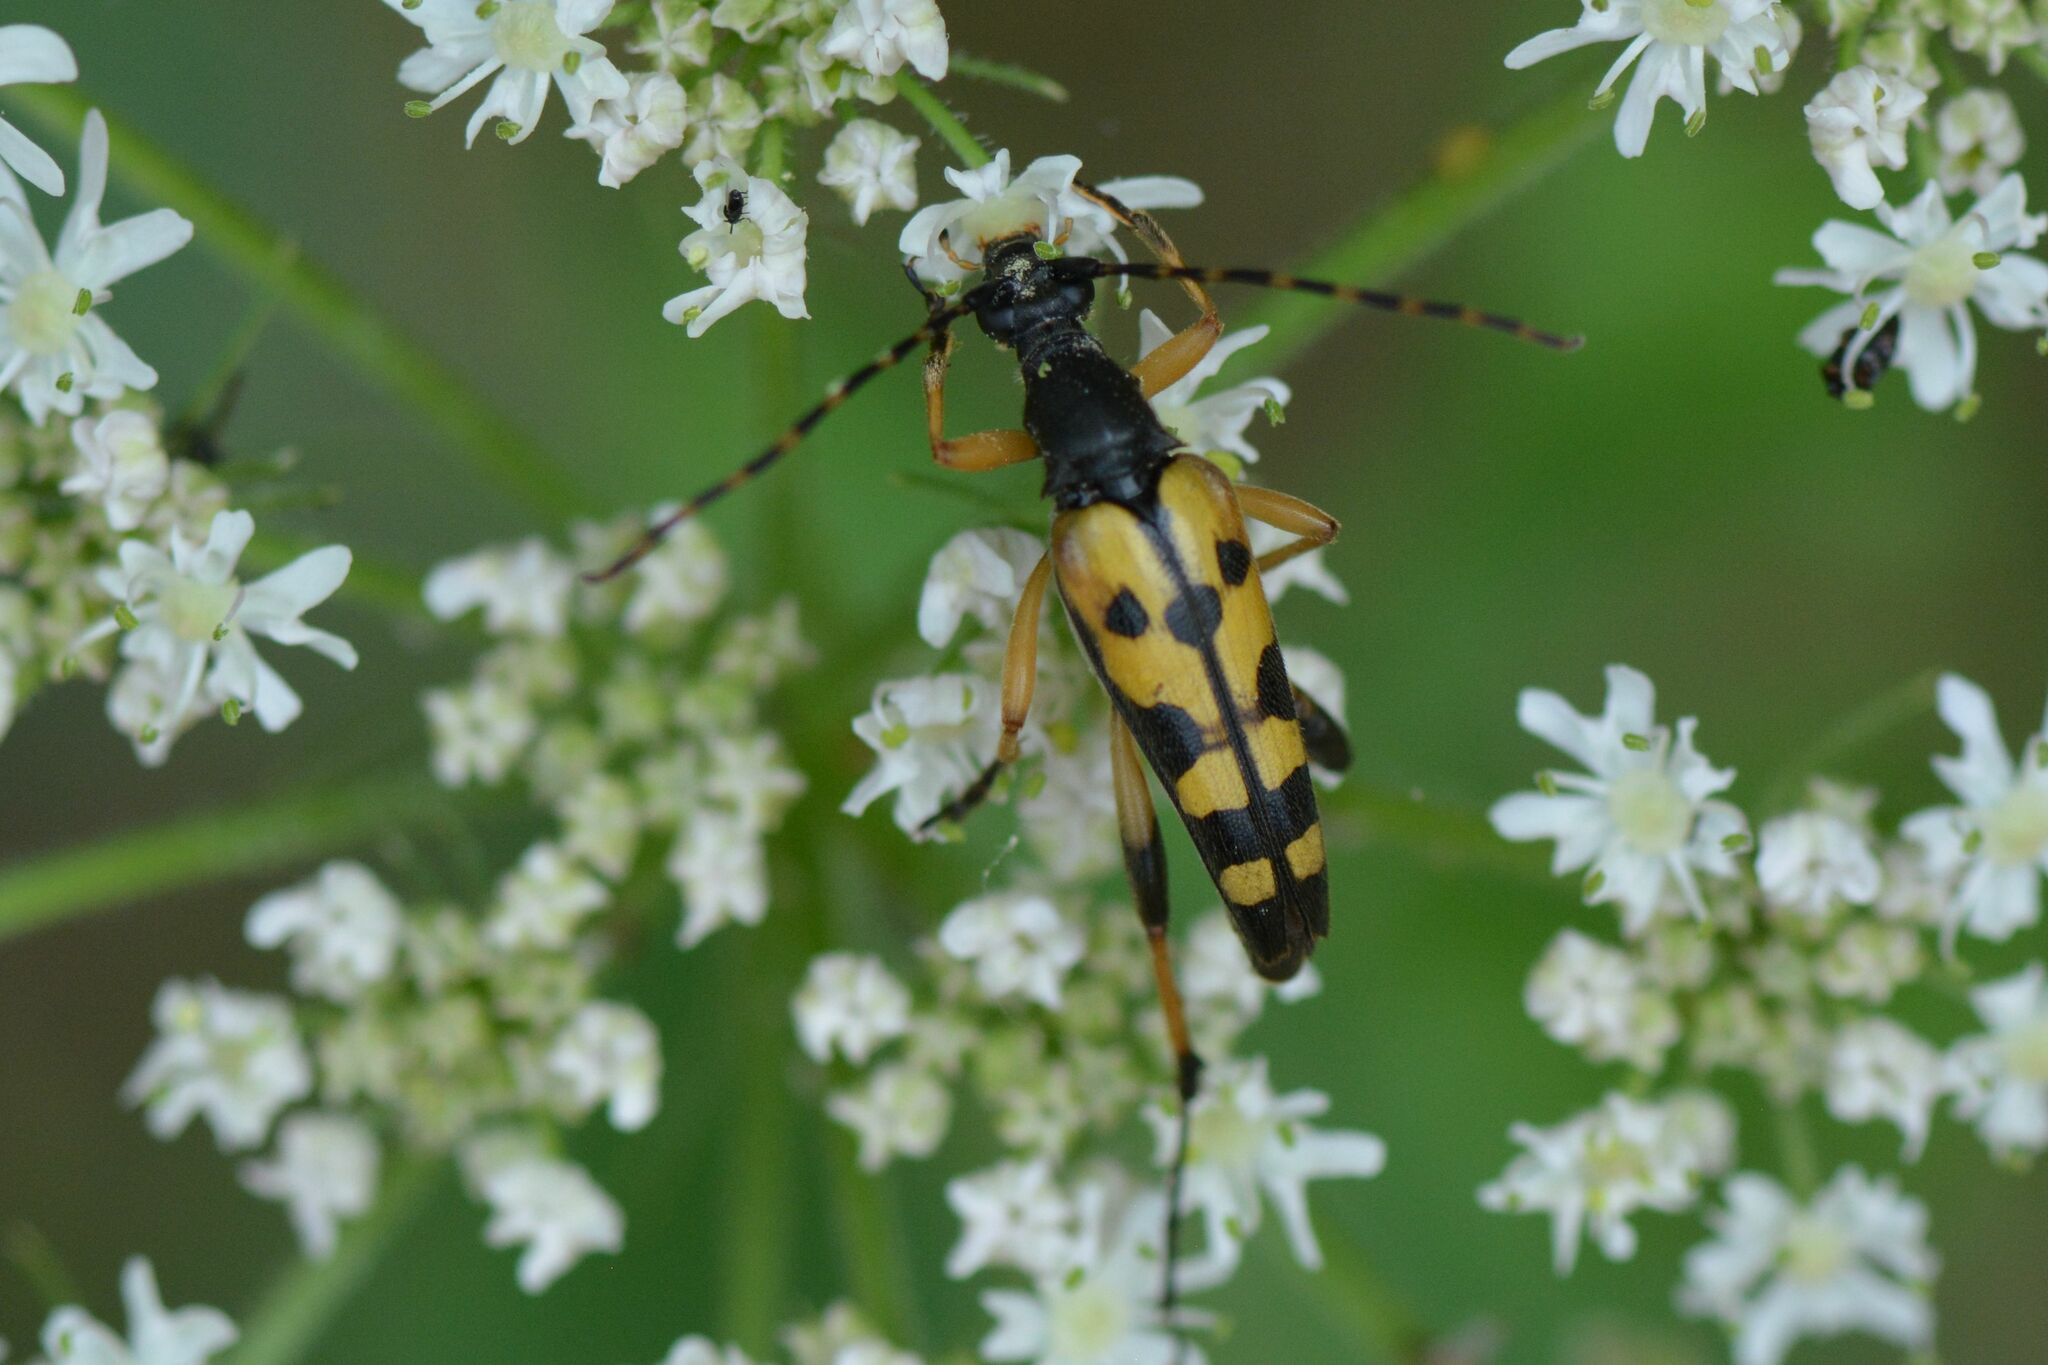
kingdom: Animalia
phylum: Arthropoda
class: Insecta
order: Coleoptera
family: Cerambycidae
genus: Rutpela
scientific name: Rutpela maculata
